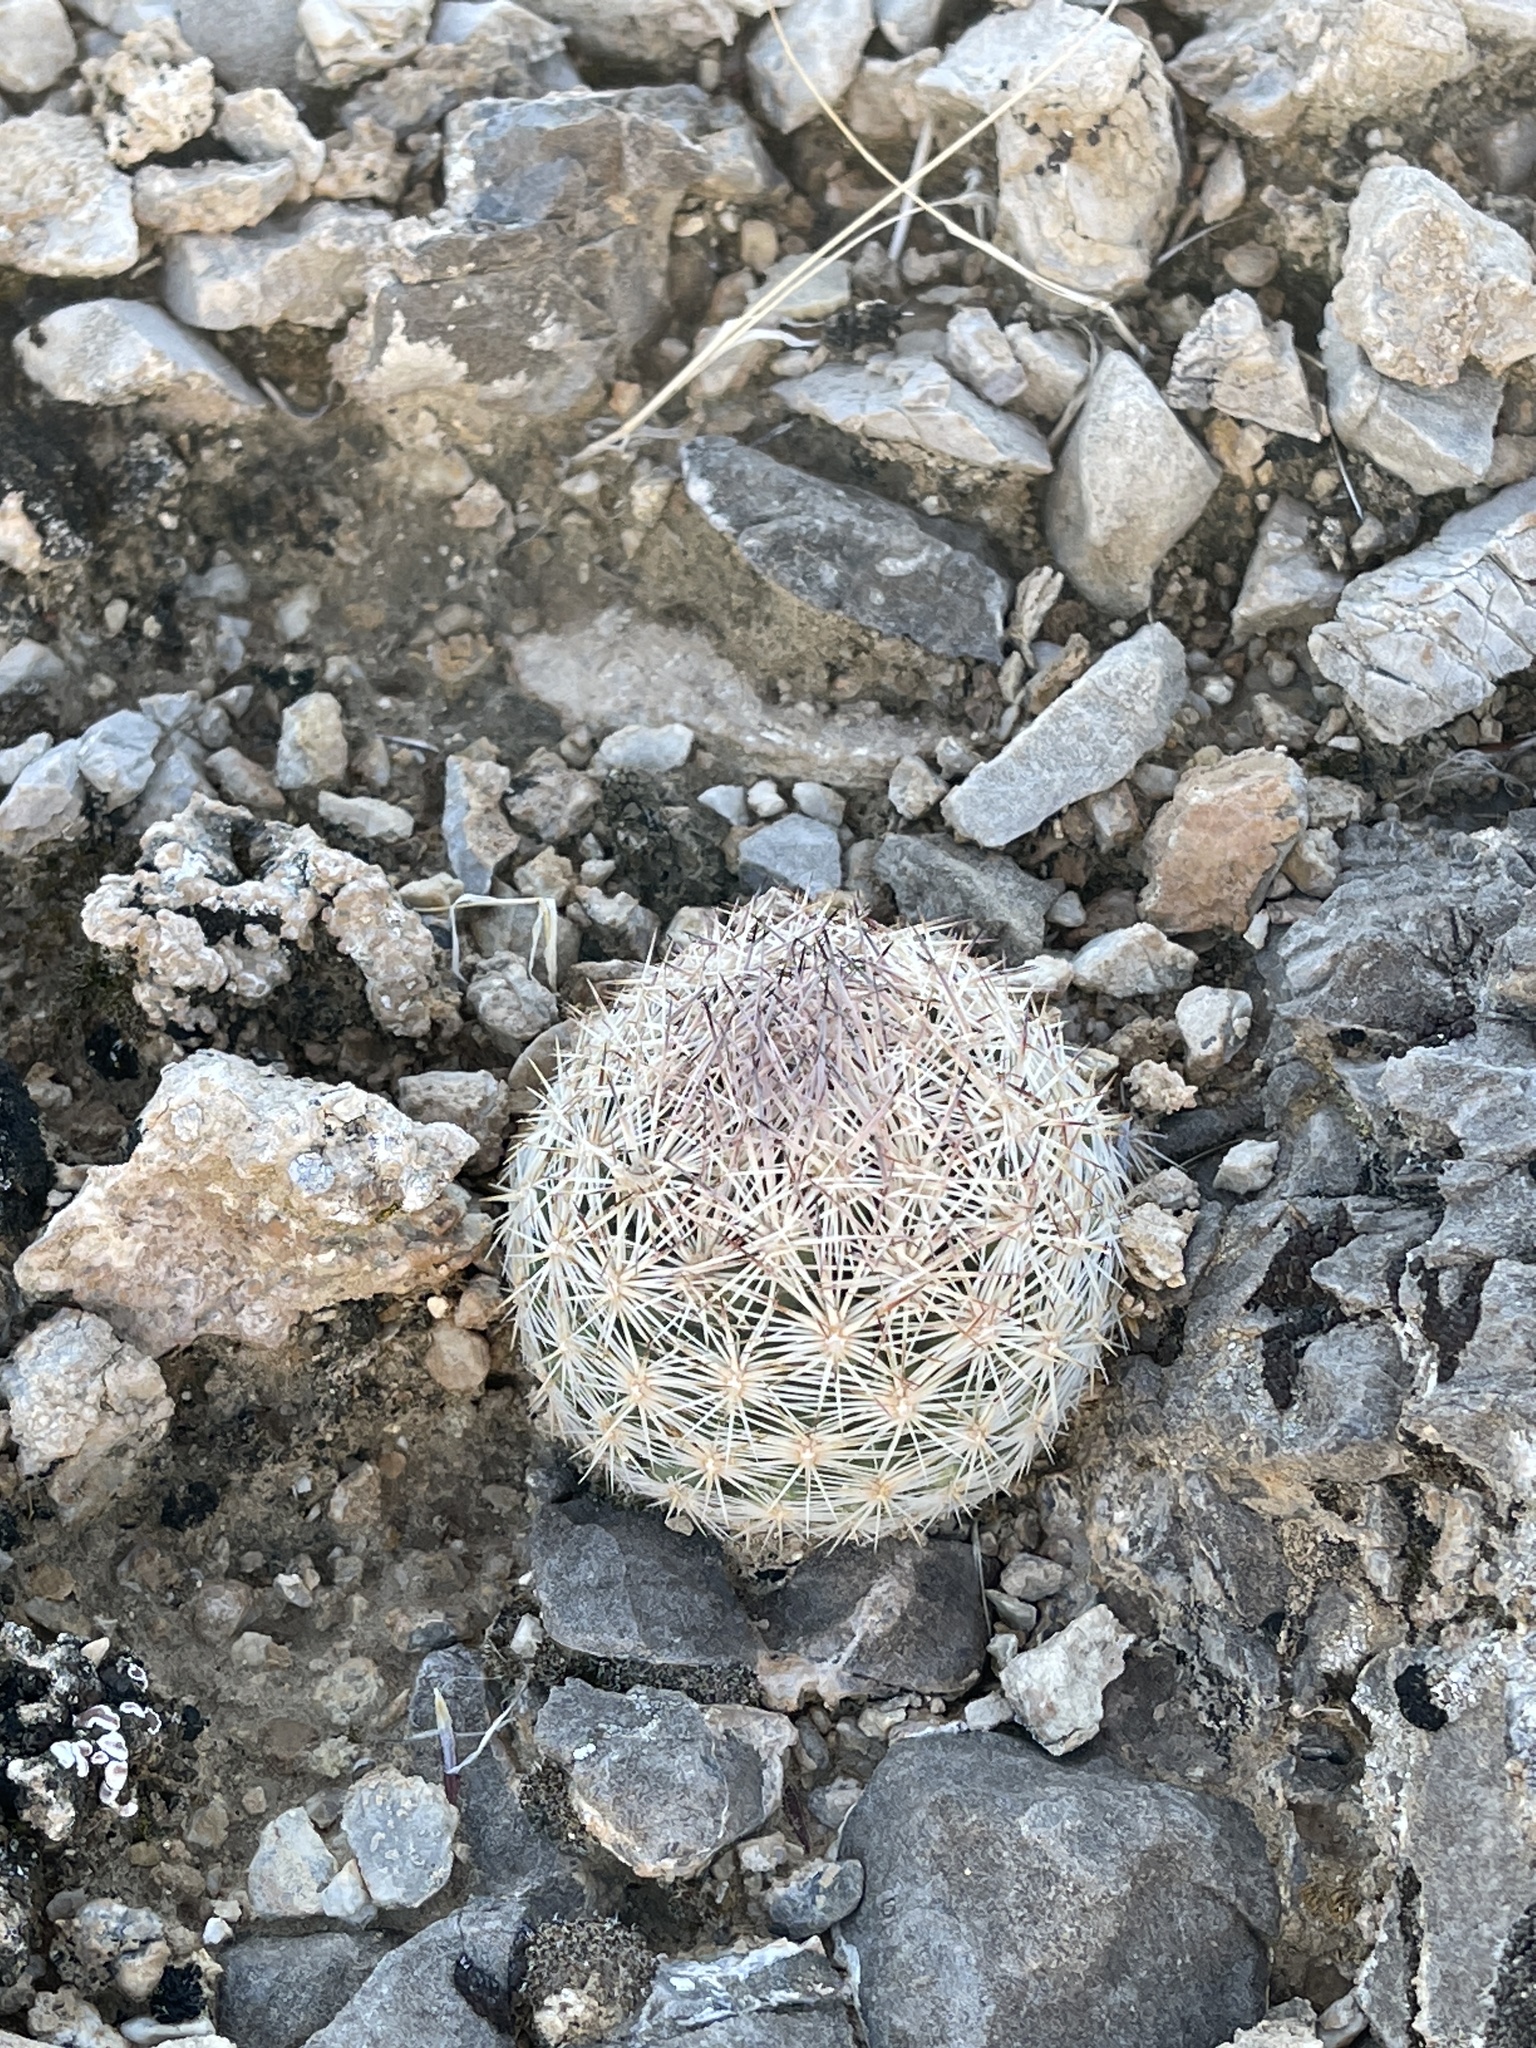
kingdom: Plantae
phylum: Tracheophyta
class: Magnoliopsida
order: Caryophyllales
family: Cactaceae
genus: Pelecyphora
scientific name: Pelecyphora dasyacantha
